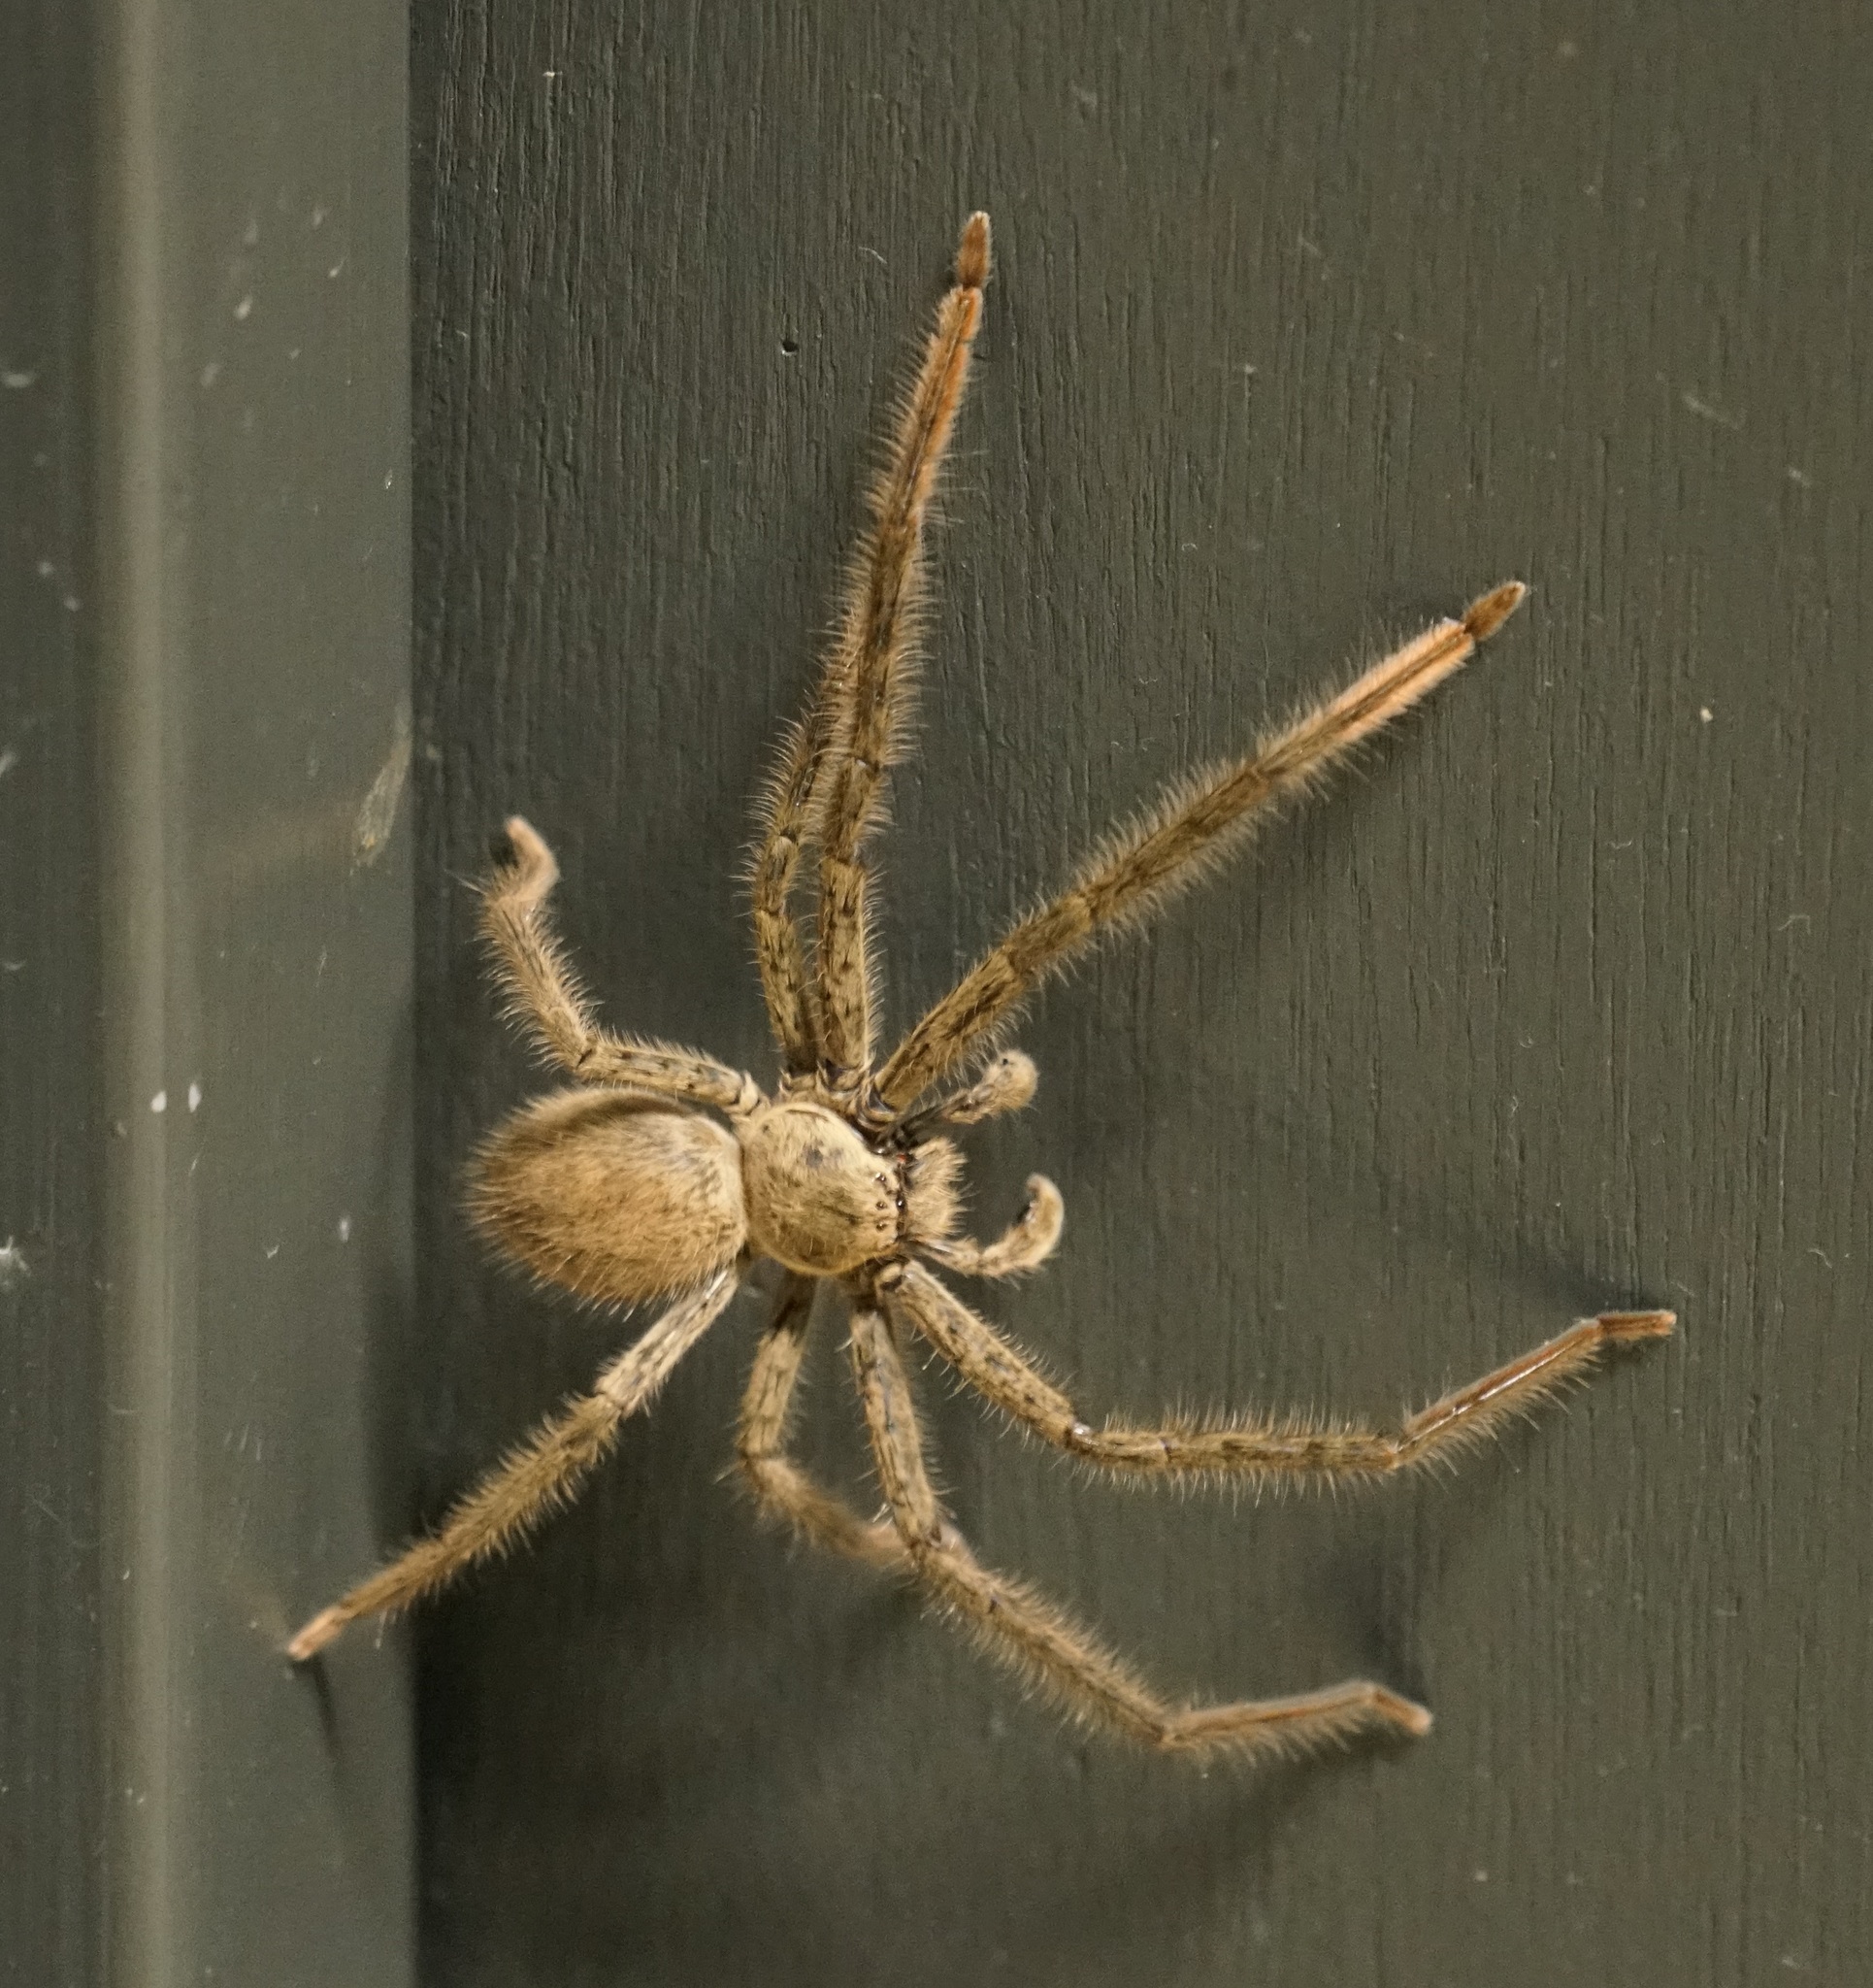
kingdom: Animalia
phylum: Arthropoda
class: Arachnida
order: Araneae
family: Sparassidae
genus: Beregama
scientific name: Beregama cordata
